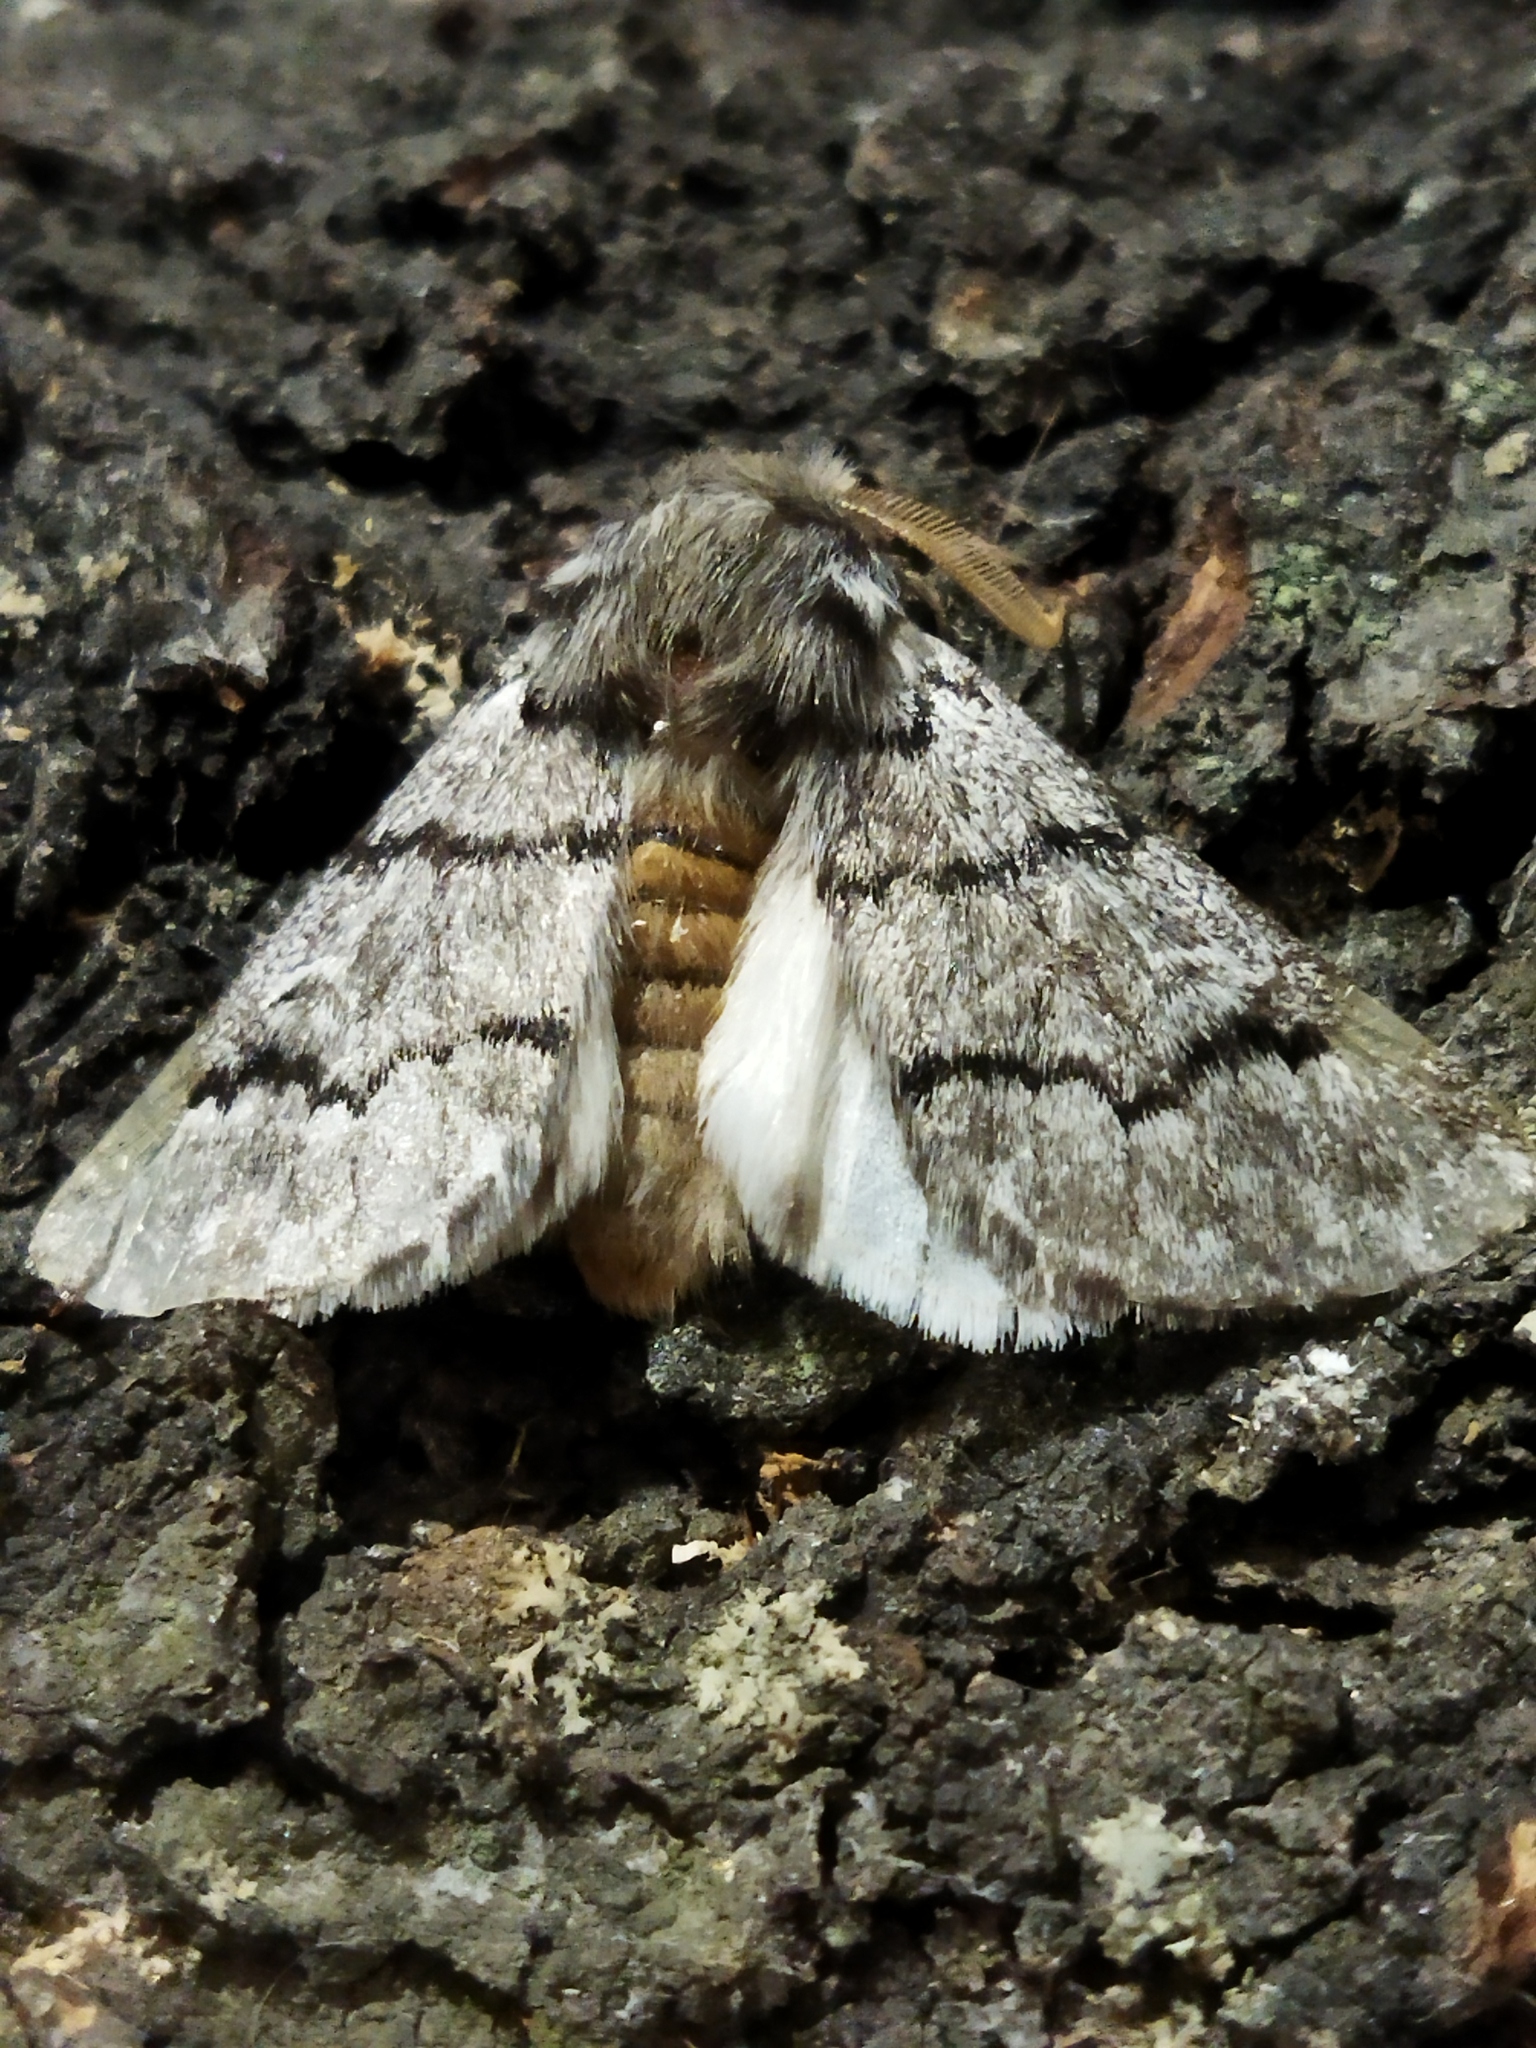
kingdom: Animalia
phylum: Arthropoda
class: Insecta
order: Lepidoptera
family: Notodontidae
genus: Thaumetopoea
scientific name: Thaumetopoea pityocampa
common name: Pine processionary
